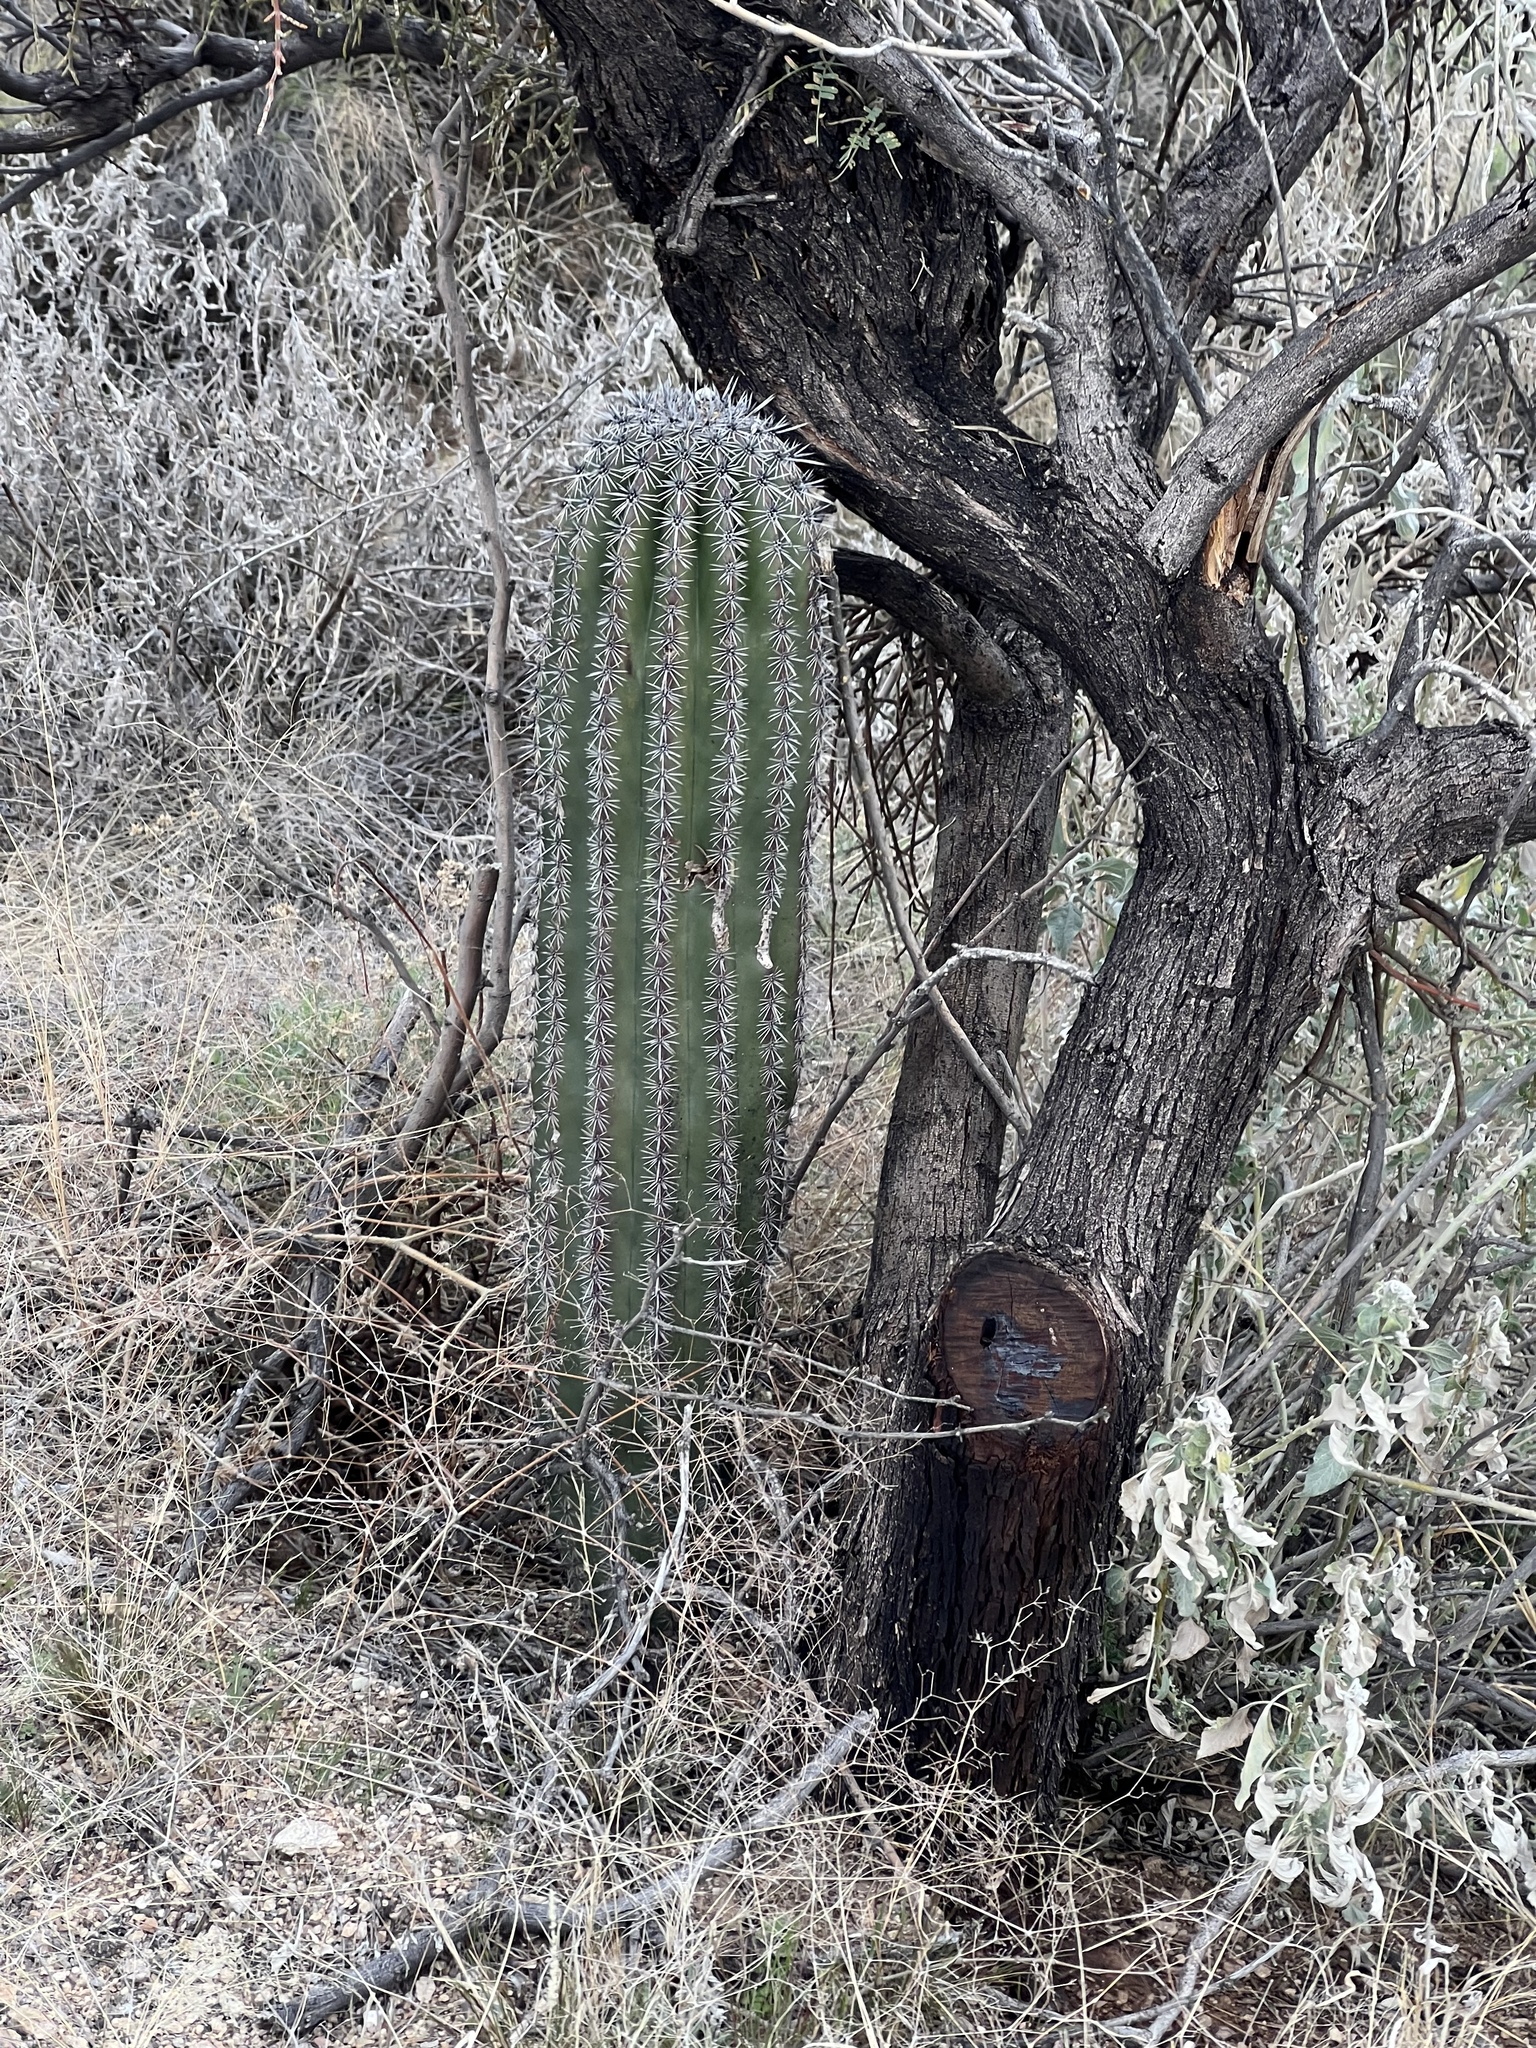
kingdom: Plantae
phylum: Tracheophyta
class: Magnoliopsida
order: Caryophyllales
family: Cactaceae
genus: Carnegiea
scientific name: Carnegiea gigantea
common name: Saguaro
